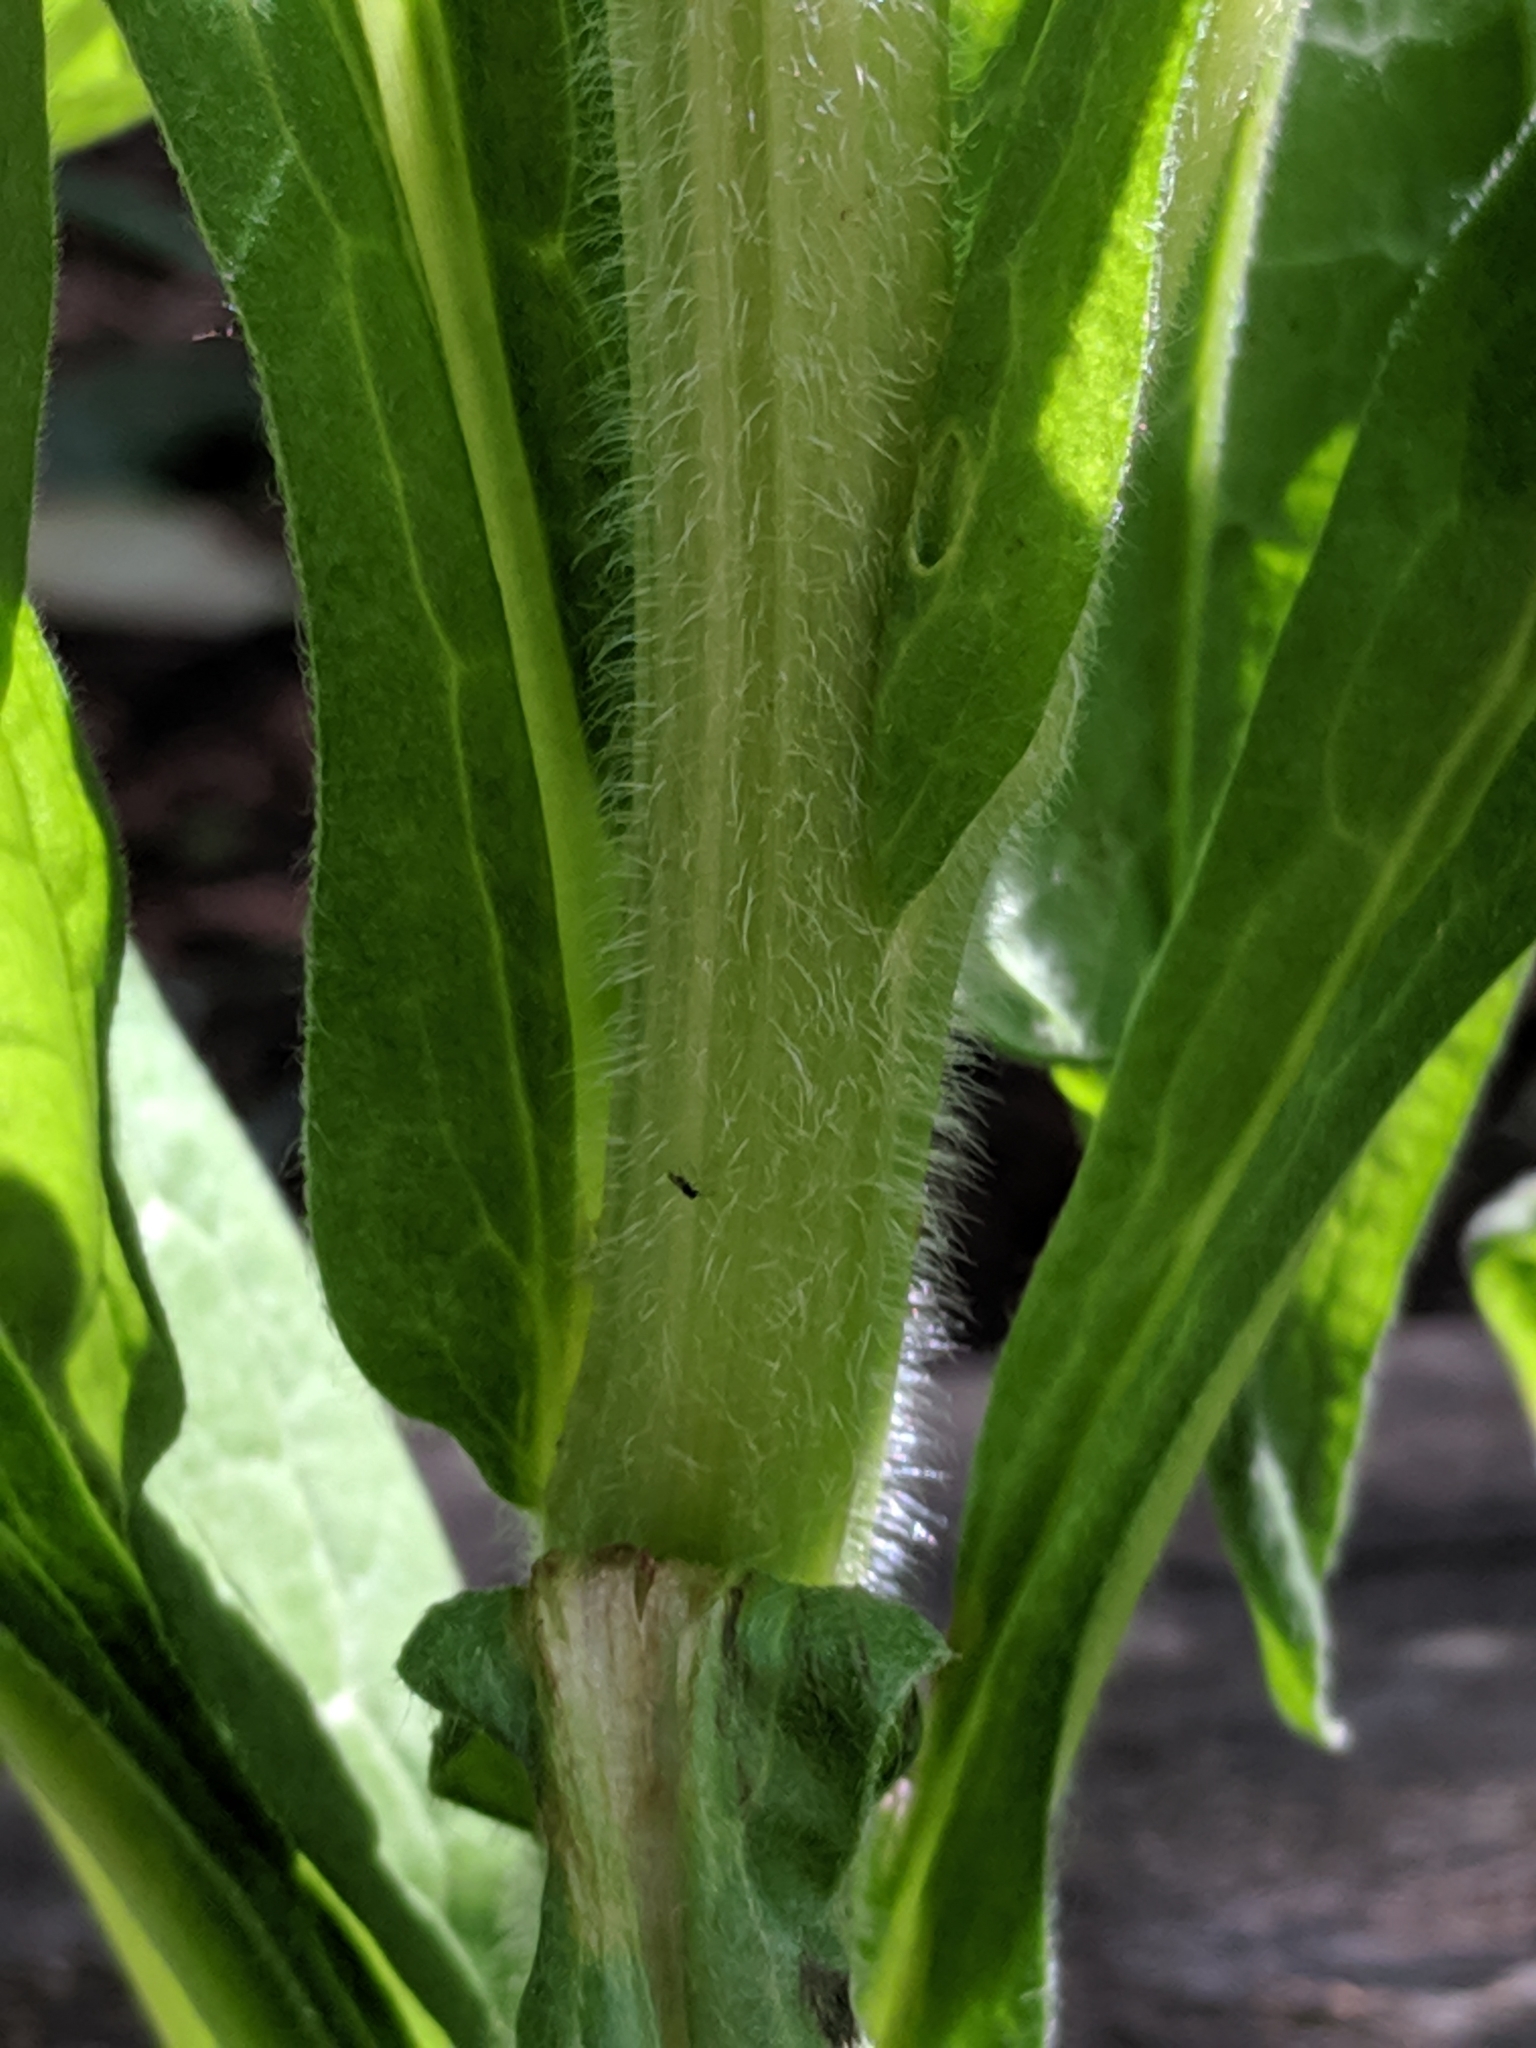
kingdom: Plantae
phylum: Tracheophyta
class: Magnoliopsida
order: Boraginales
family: Boraginaceae
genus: Cynoglossum
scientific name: Cynoglossum officinale
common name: Hound's-tongue
